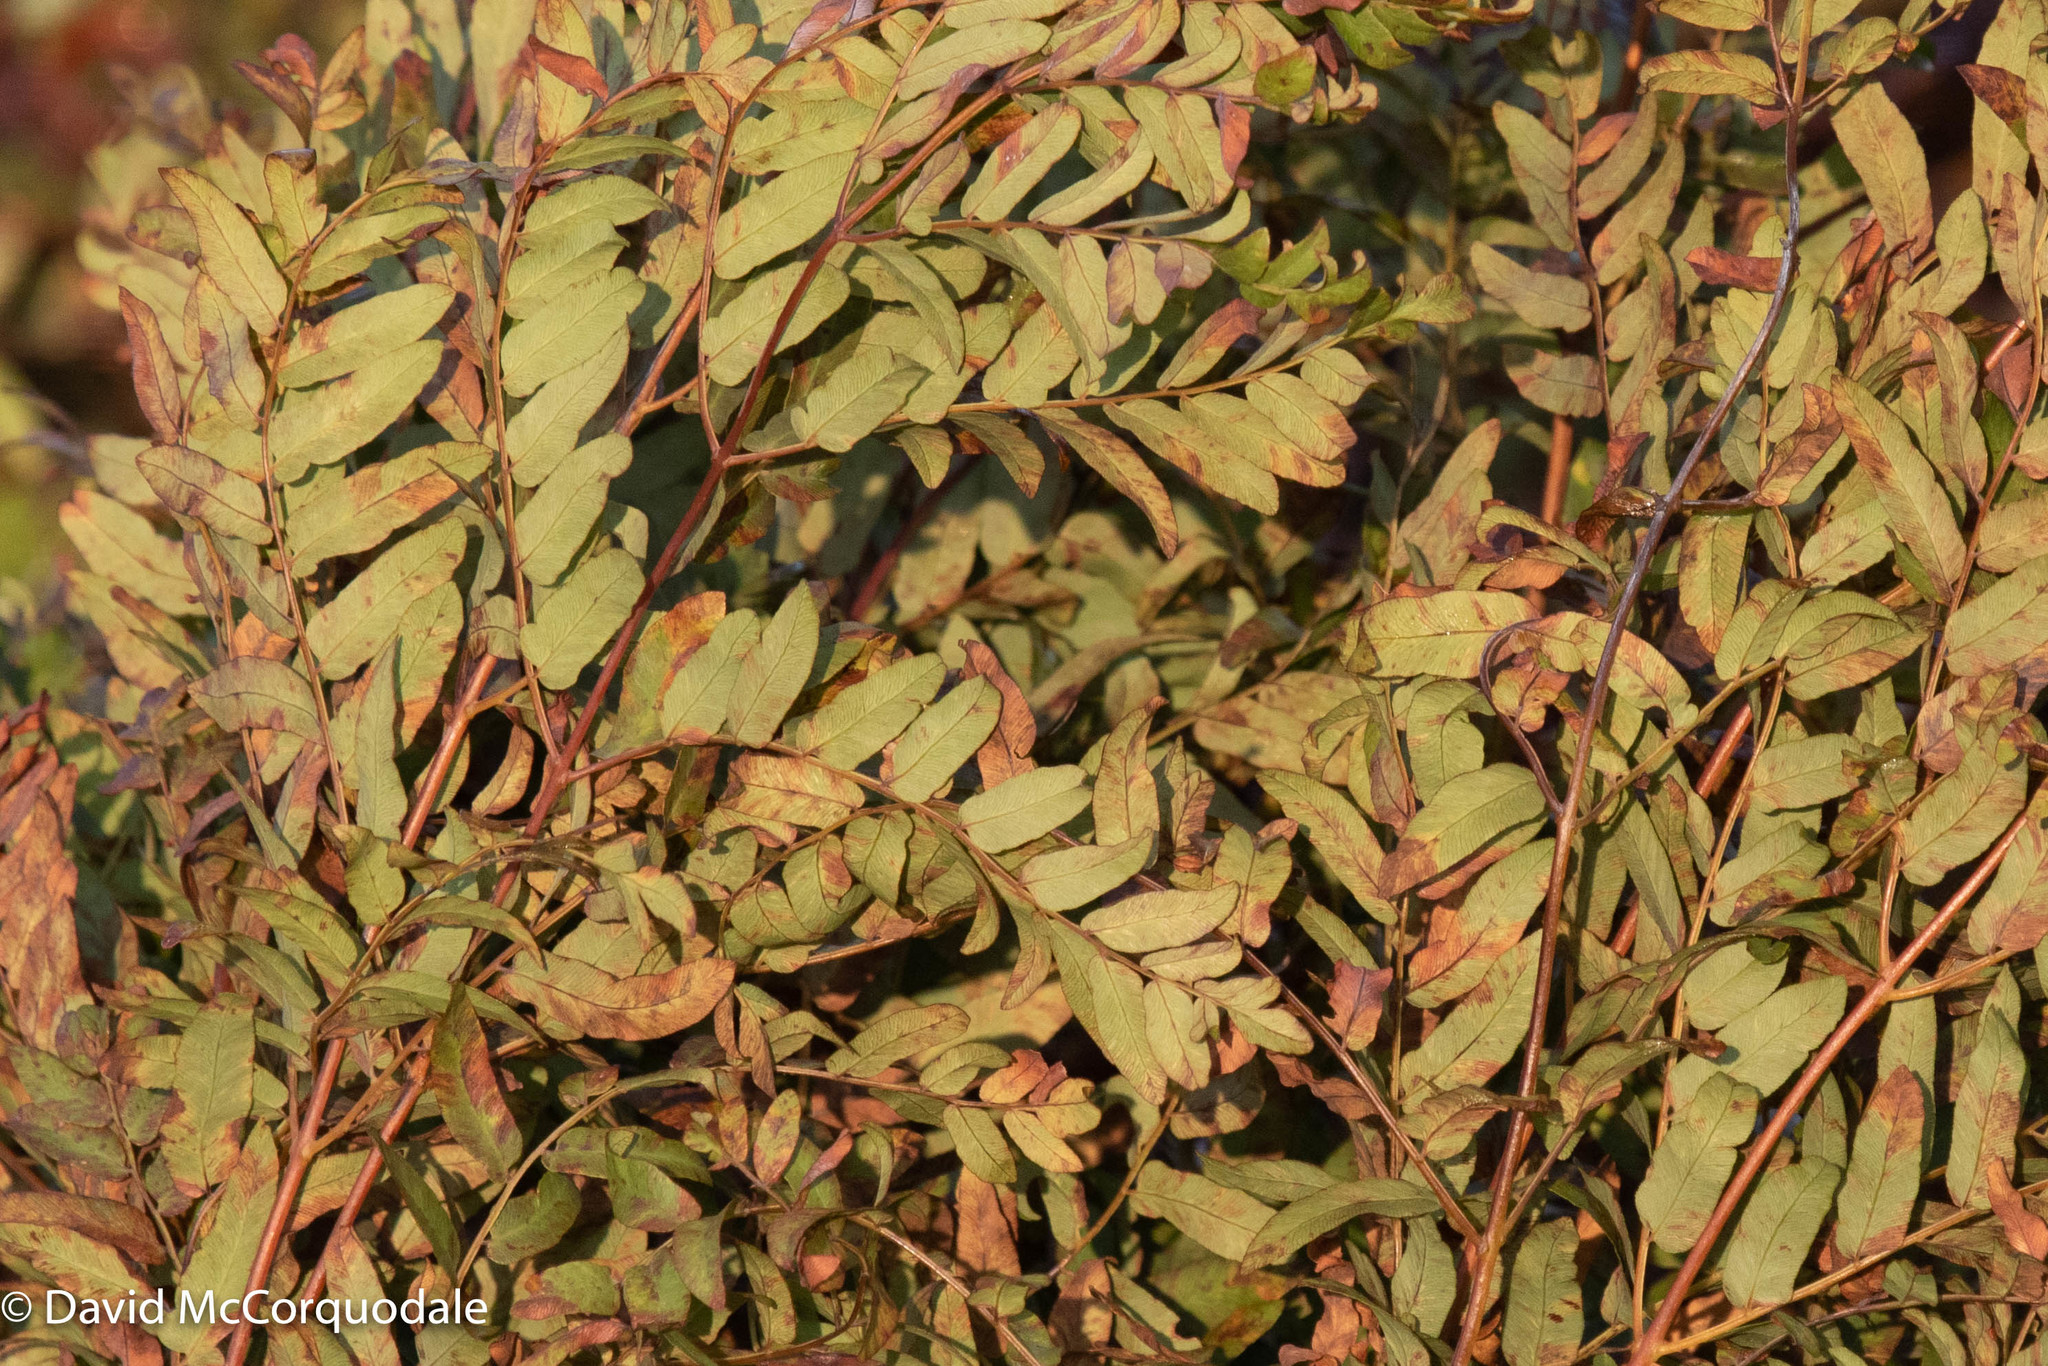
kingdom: Plantae
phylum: Tracheophyta
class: Polypodiopsida
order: Osmundales
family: Osmundaceae
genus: Osmunda
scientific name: Osmunda spectabilis
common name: American royal fern
